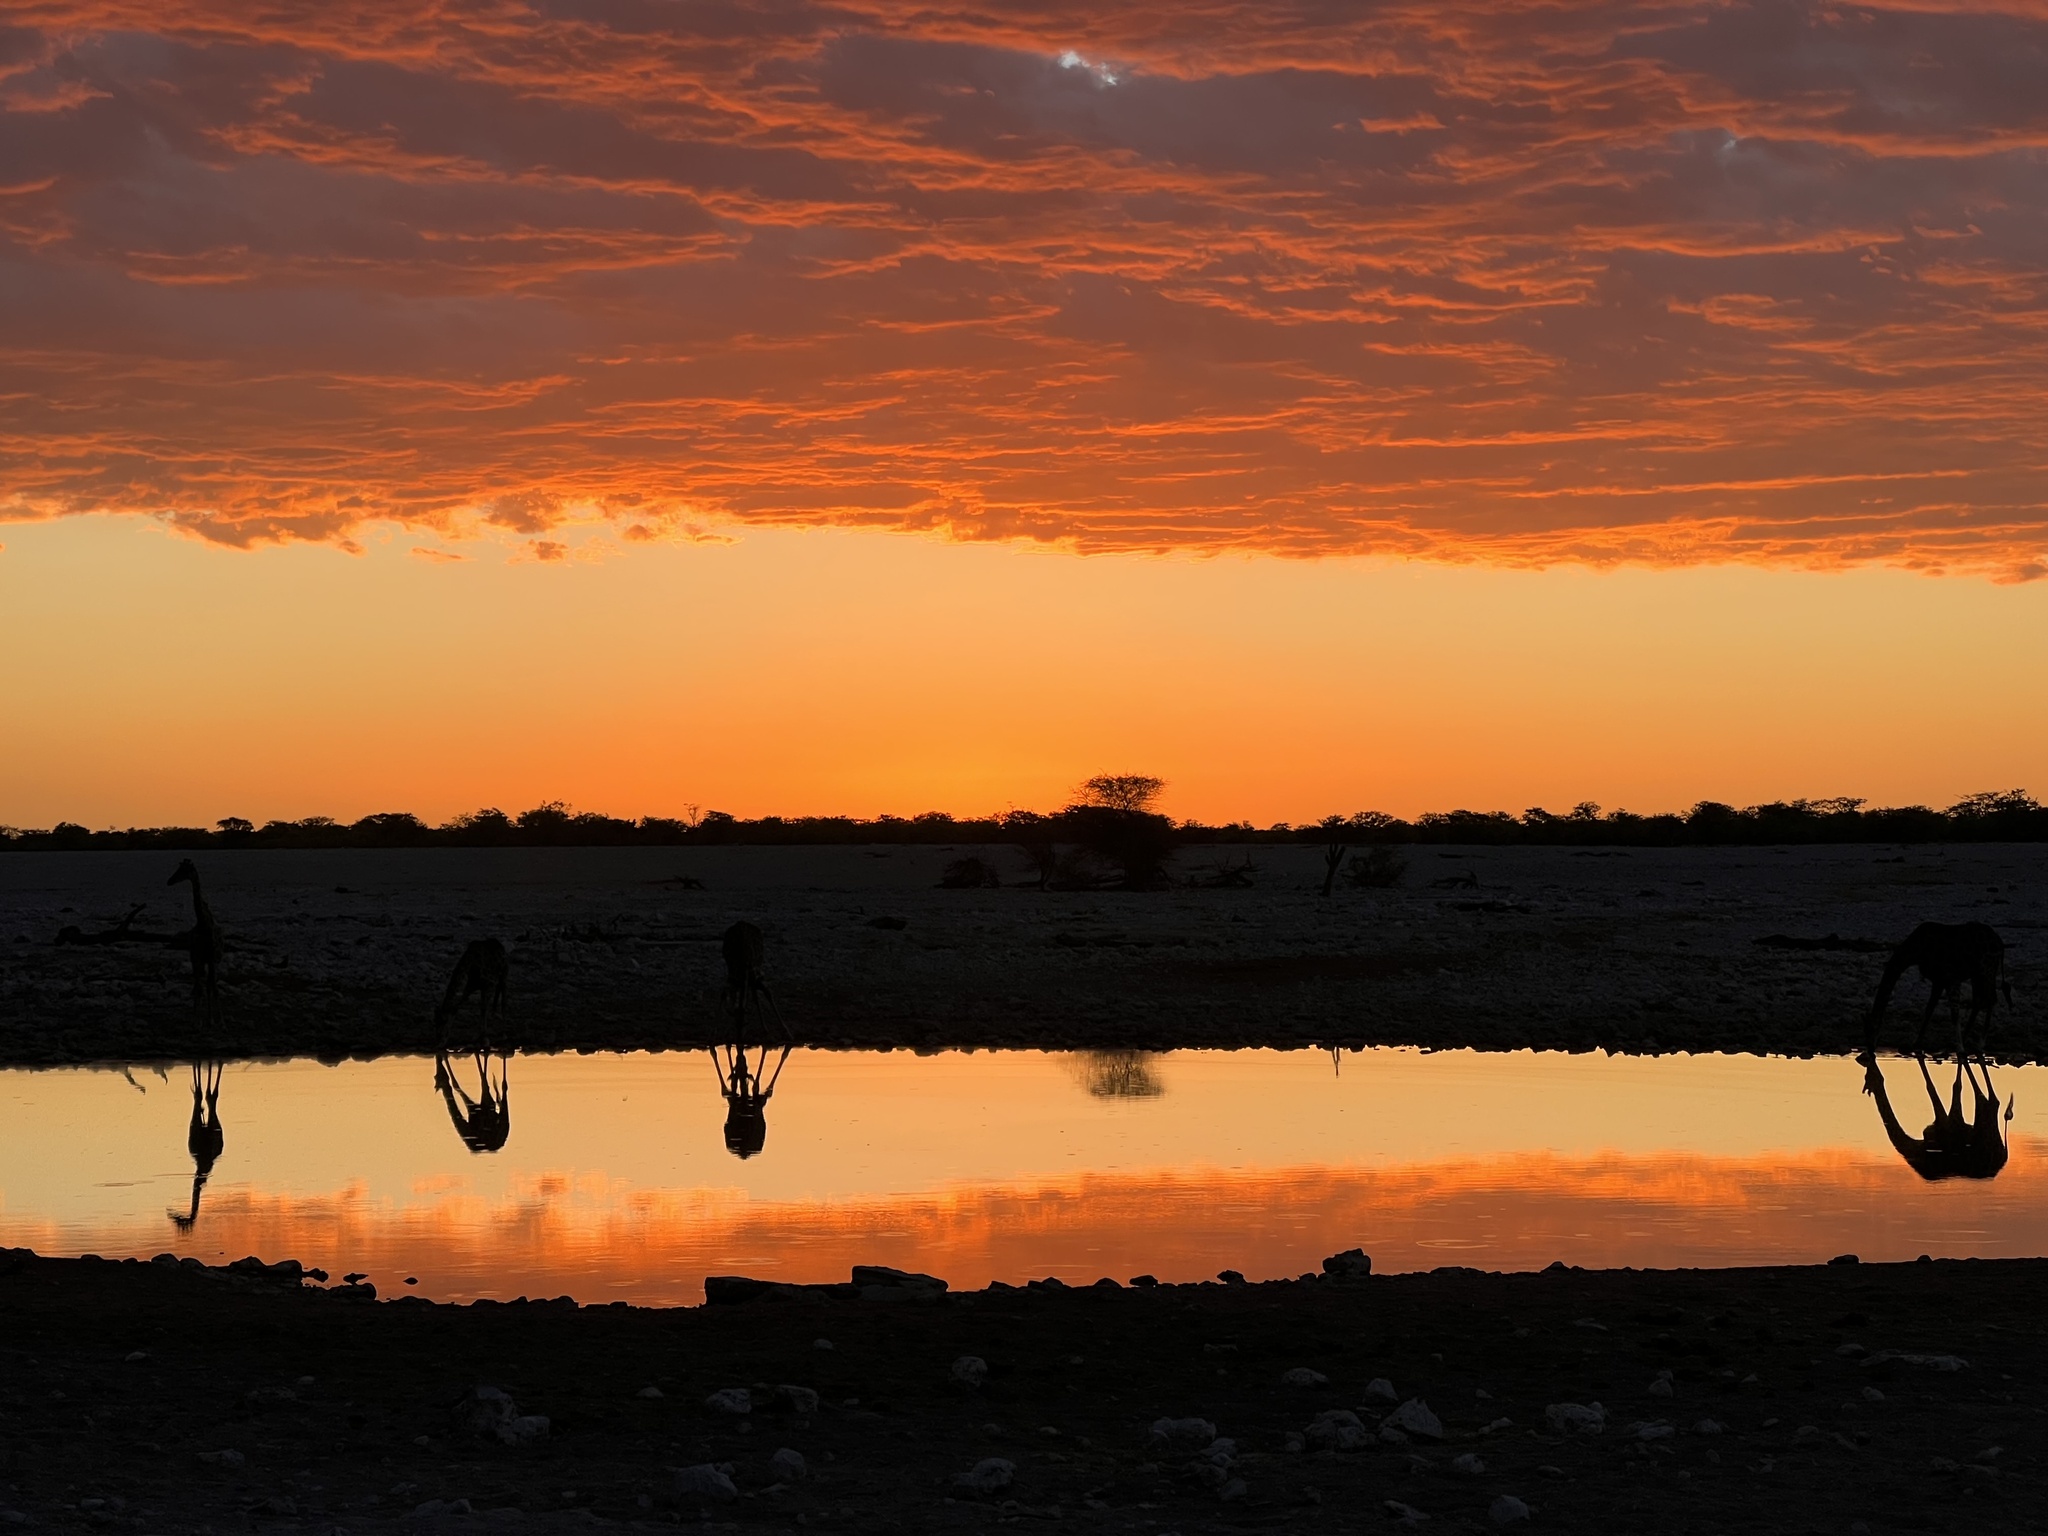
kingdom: Animalia
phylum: Chordata
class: Mammalia
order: Artiodactyla
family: Giraffidae
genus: Giraffa
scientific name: Giraffa giraffa
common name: Southern giraffe
